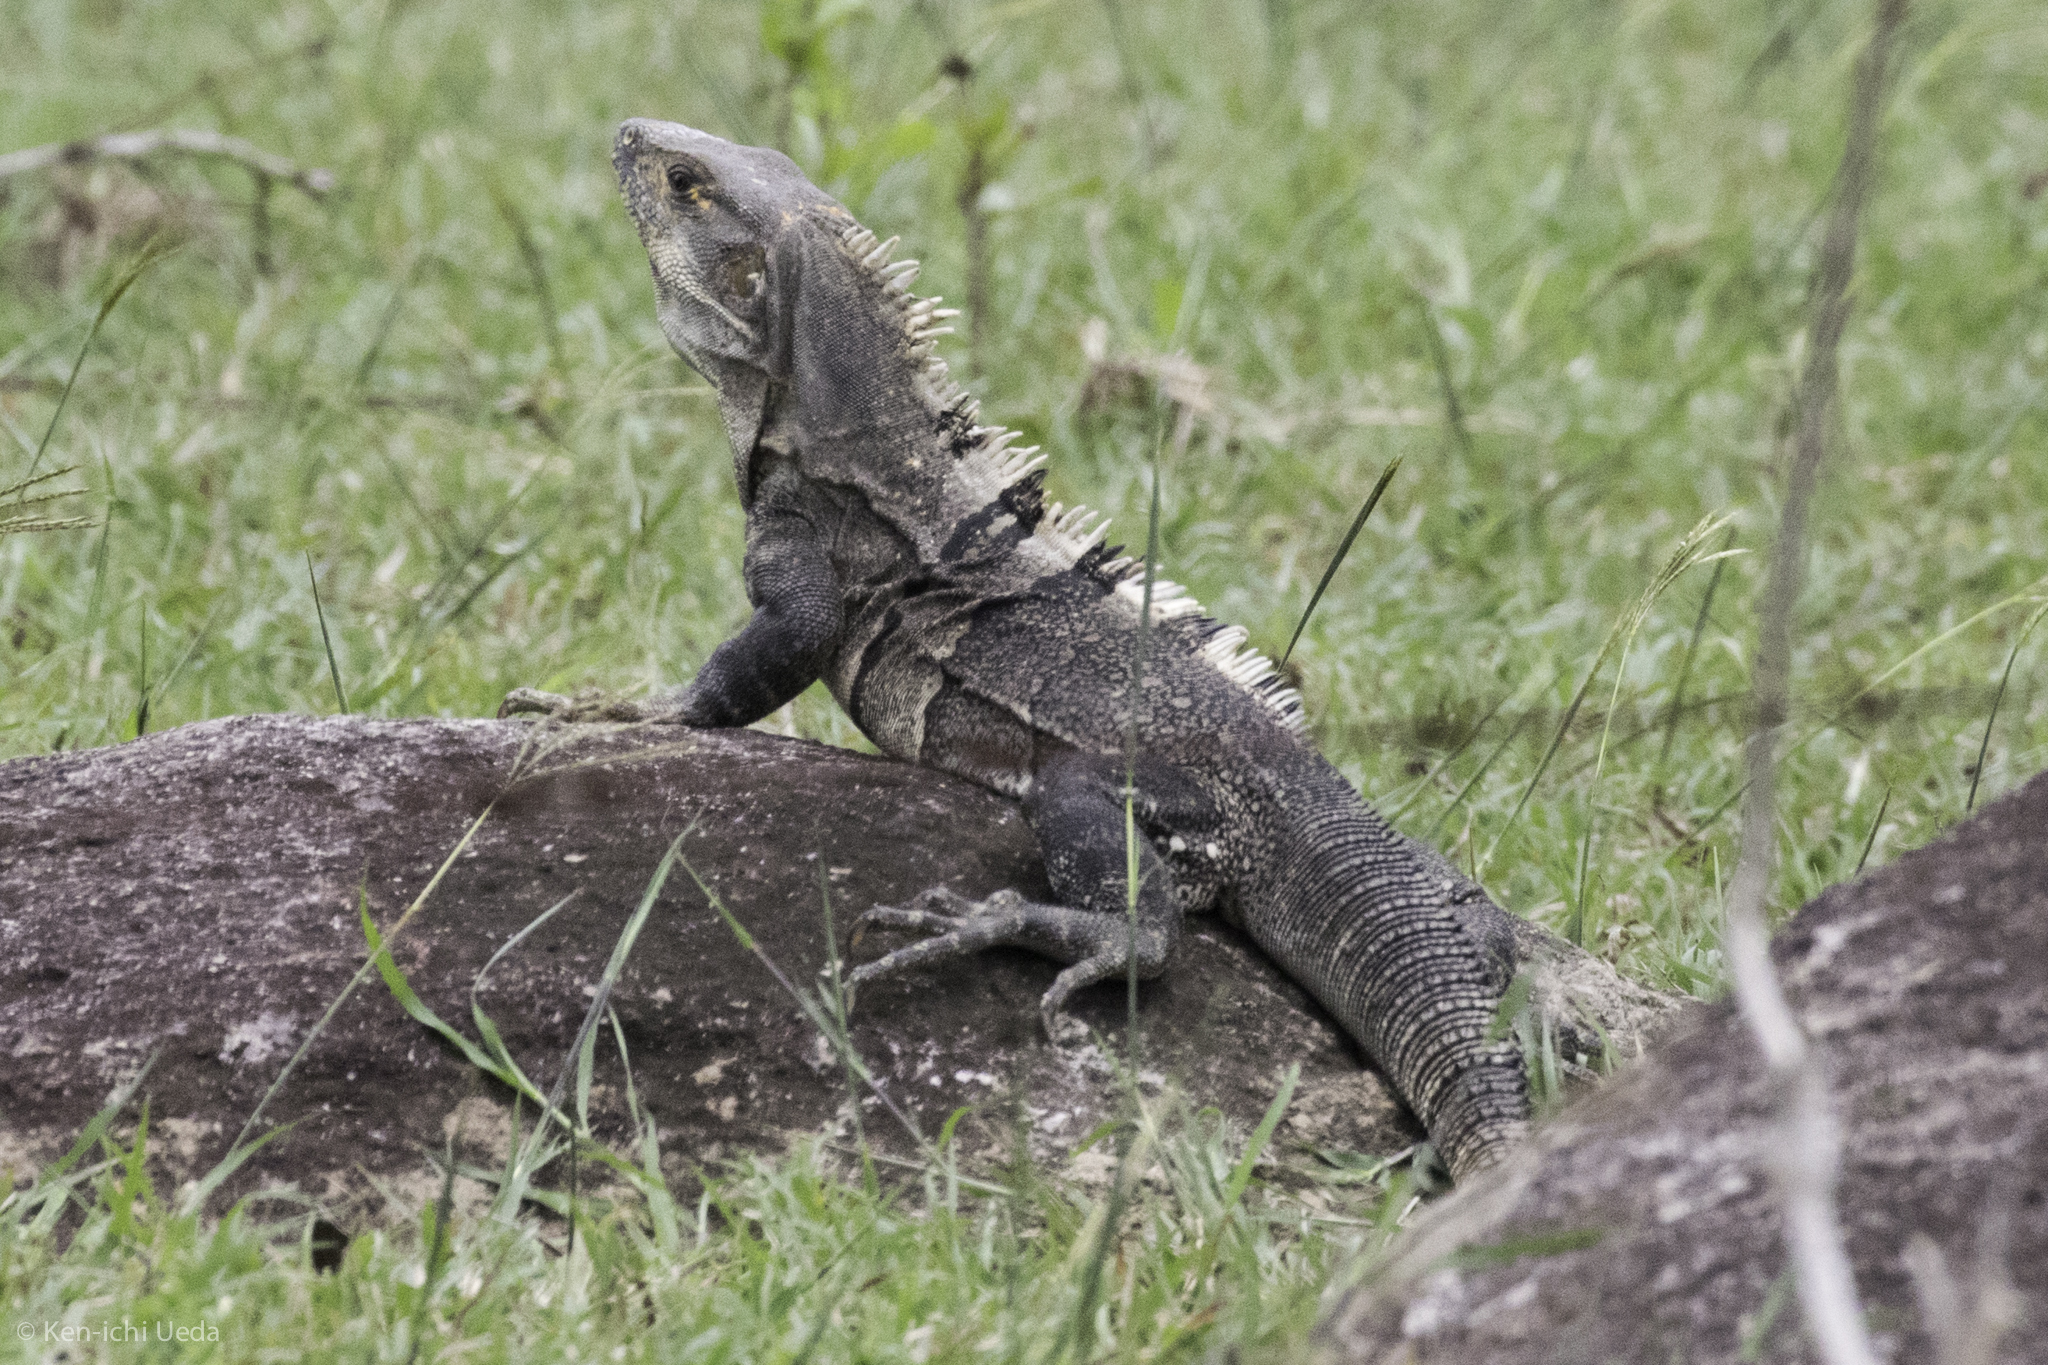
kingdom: Animalia
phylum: Chordata
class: Squamata
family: Iguanidae
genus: Ctenosaura
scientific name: Ctenosaura similis
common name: Black spiny-tailed iguana
